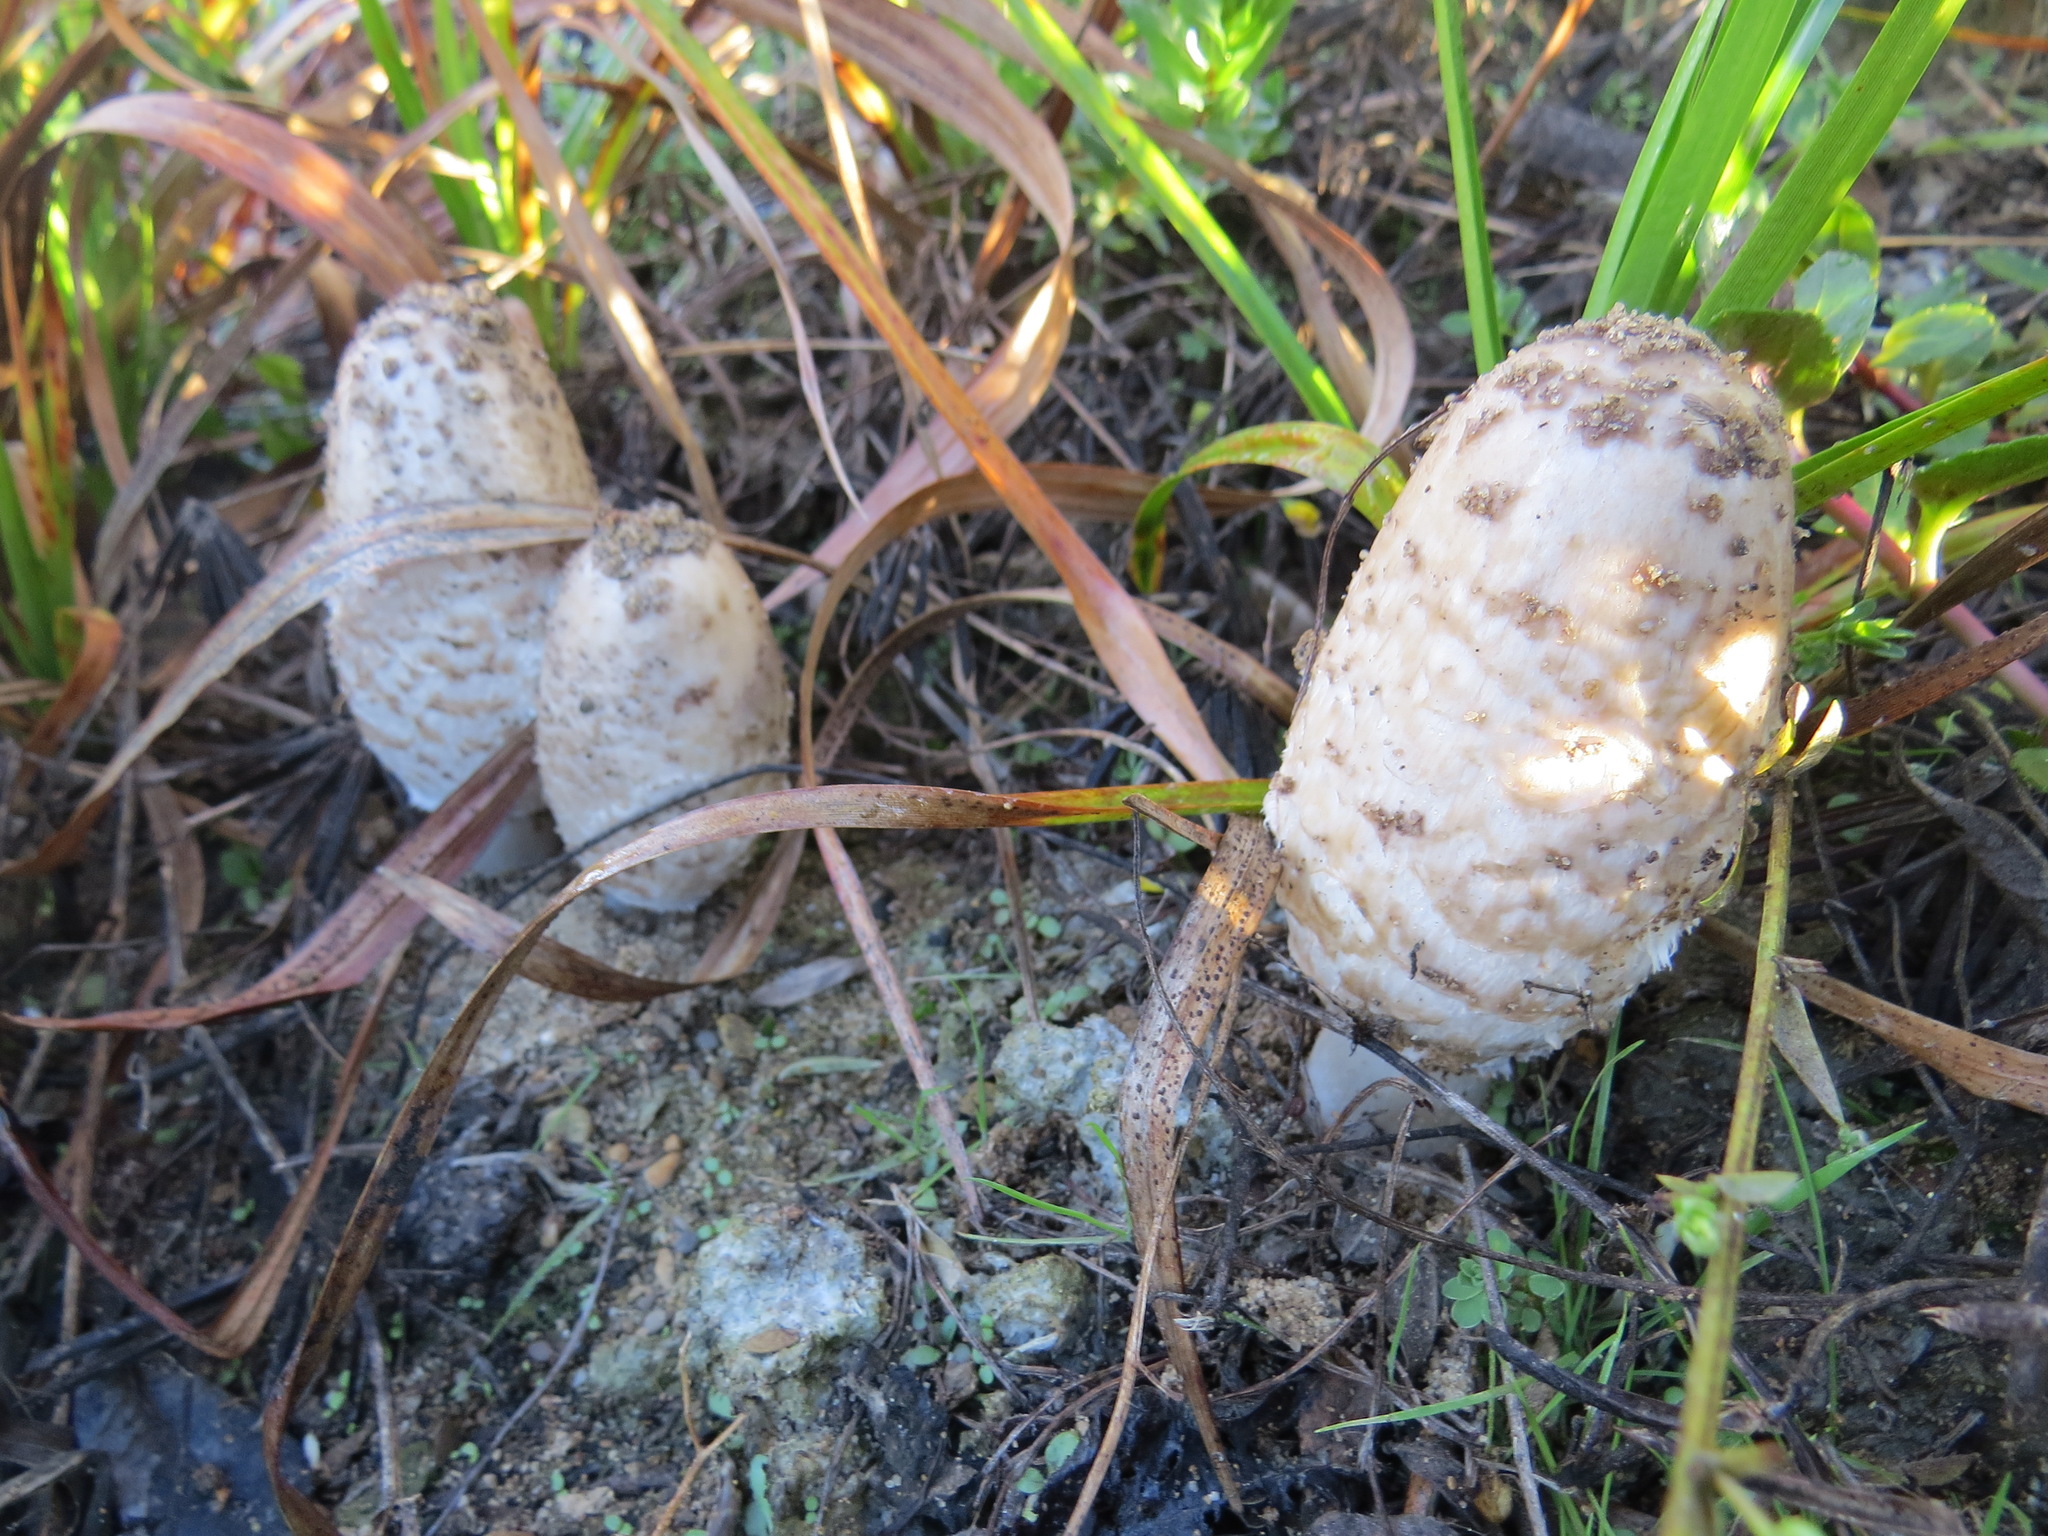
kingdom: Fungi
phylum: Basidiomycota
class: Agaricomycetes
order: Agaricales
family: Agaricaceae
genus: Coprinus
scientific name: Coprinus comatus
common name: Lawyer's wig
